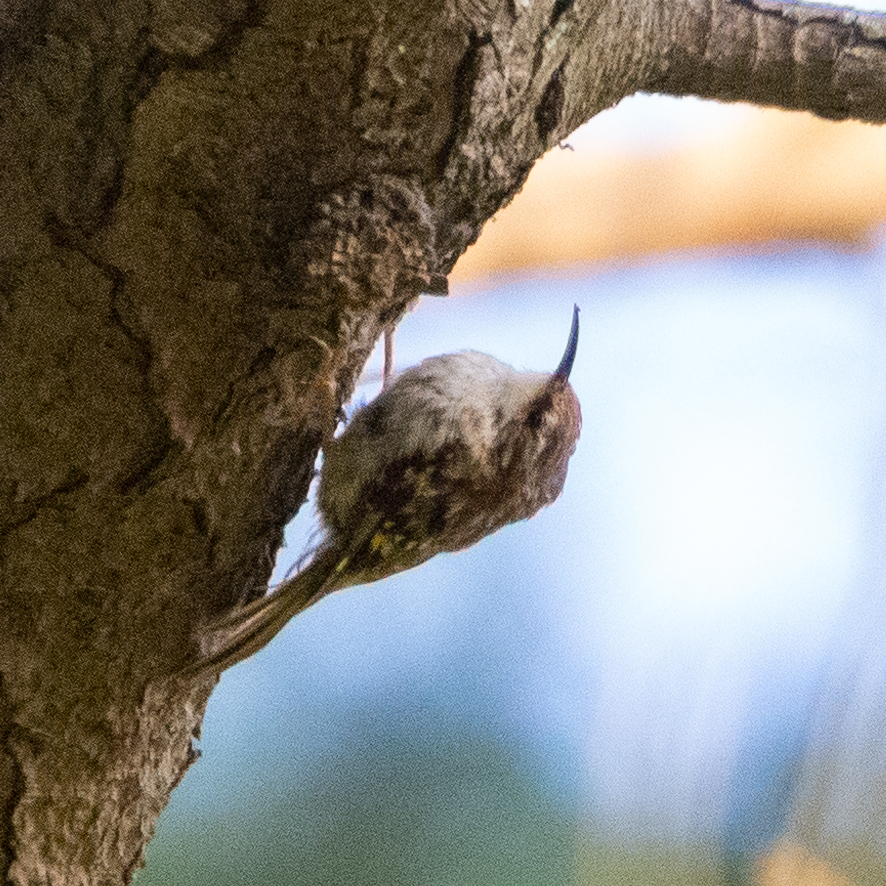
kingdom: Animalia
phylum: Chordata
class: Aves
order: Passeriformes
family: Certhiidae
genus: Certhia
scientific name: Certhia brachydactyla
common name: Short-toed treecreeper
